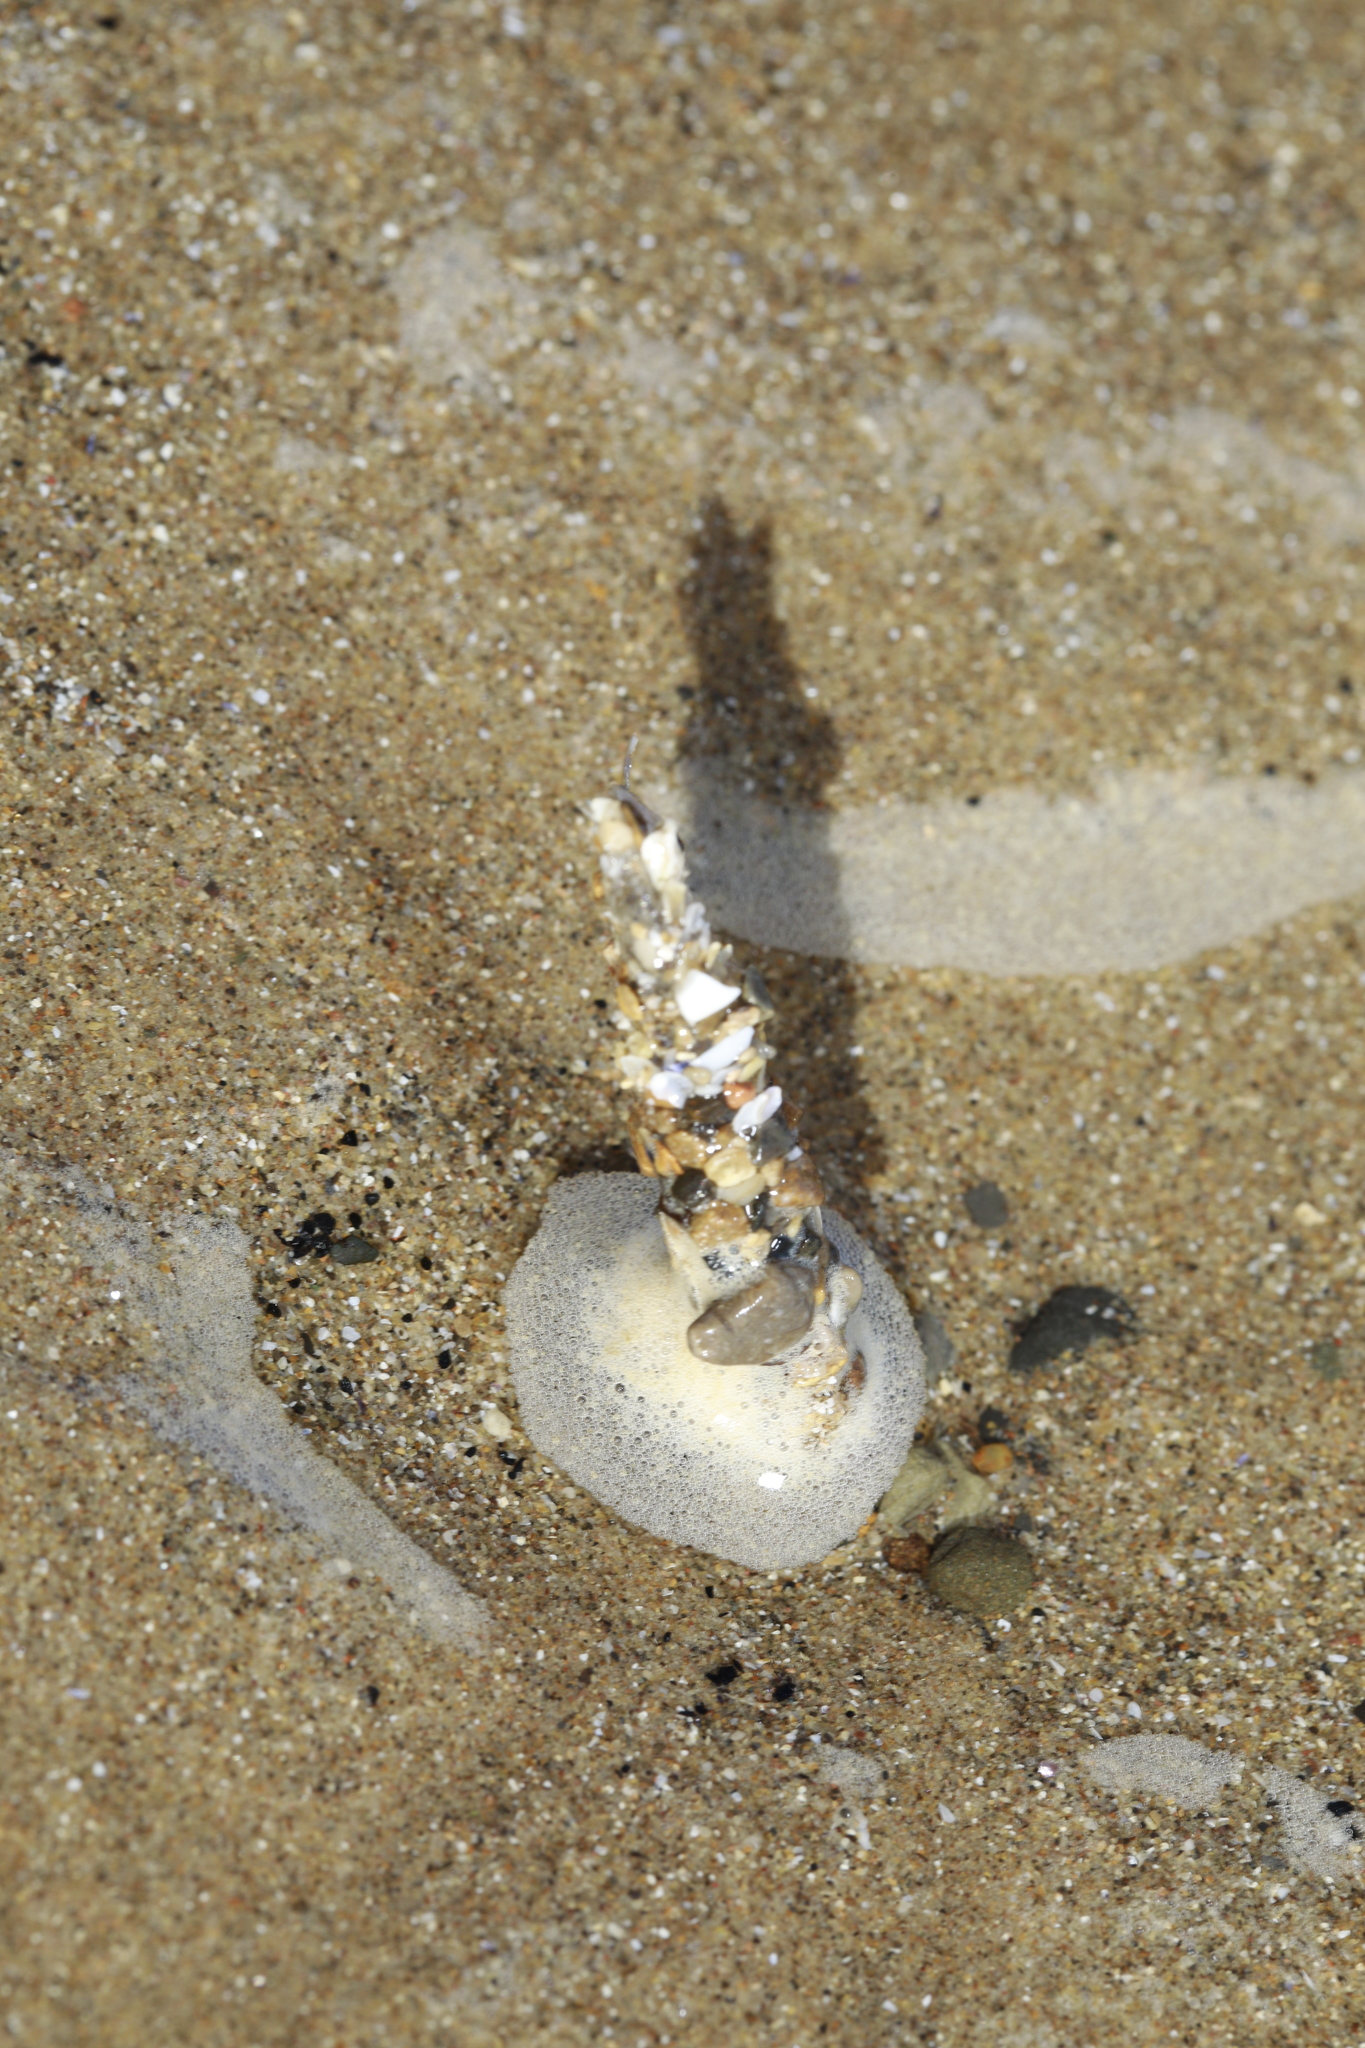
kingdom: Animalia
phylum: Annelida
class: Polychaeta
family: Terebellidae
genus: Lanice
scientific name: Lanice conchilega
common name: Sand mason
